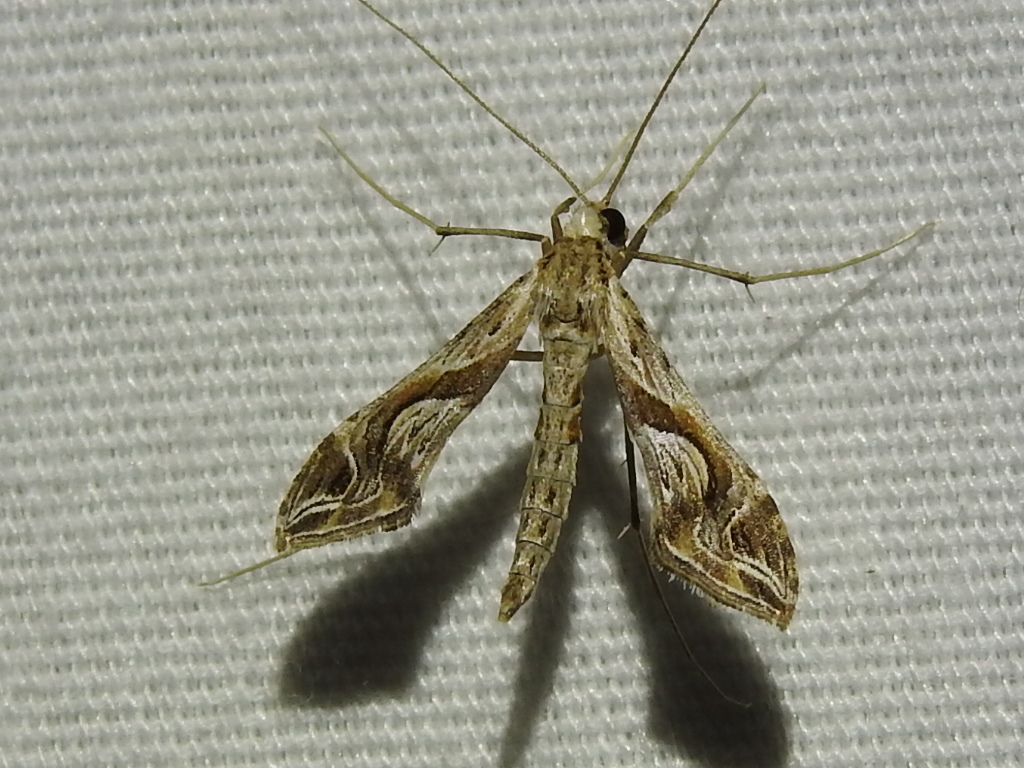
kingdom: Animalia
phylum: Arthropoda
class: Insecta
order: Lepidoptera
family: Crambidae
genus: Lineodes
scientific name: Lineodes integra
